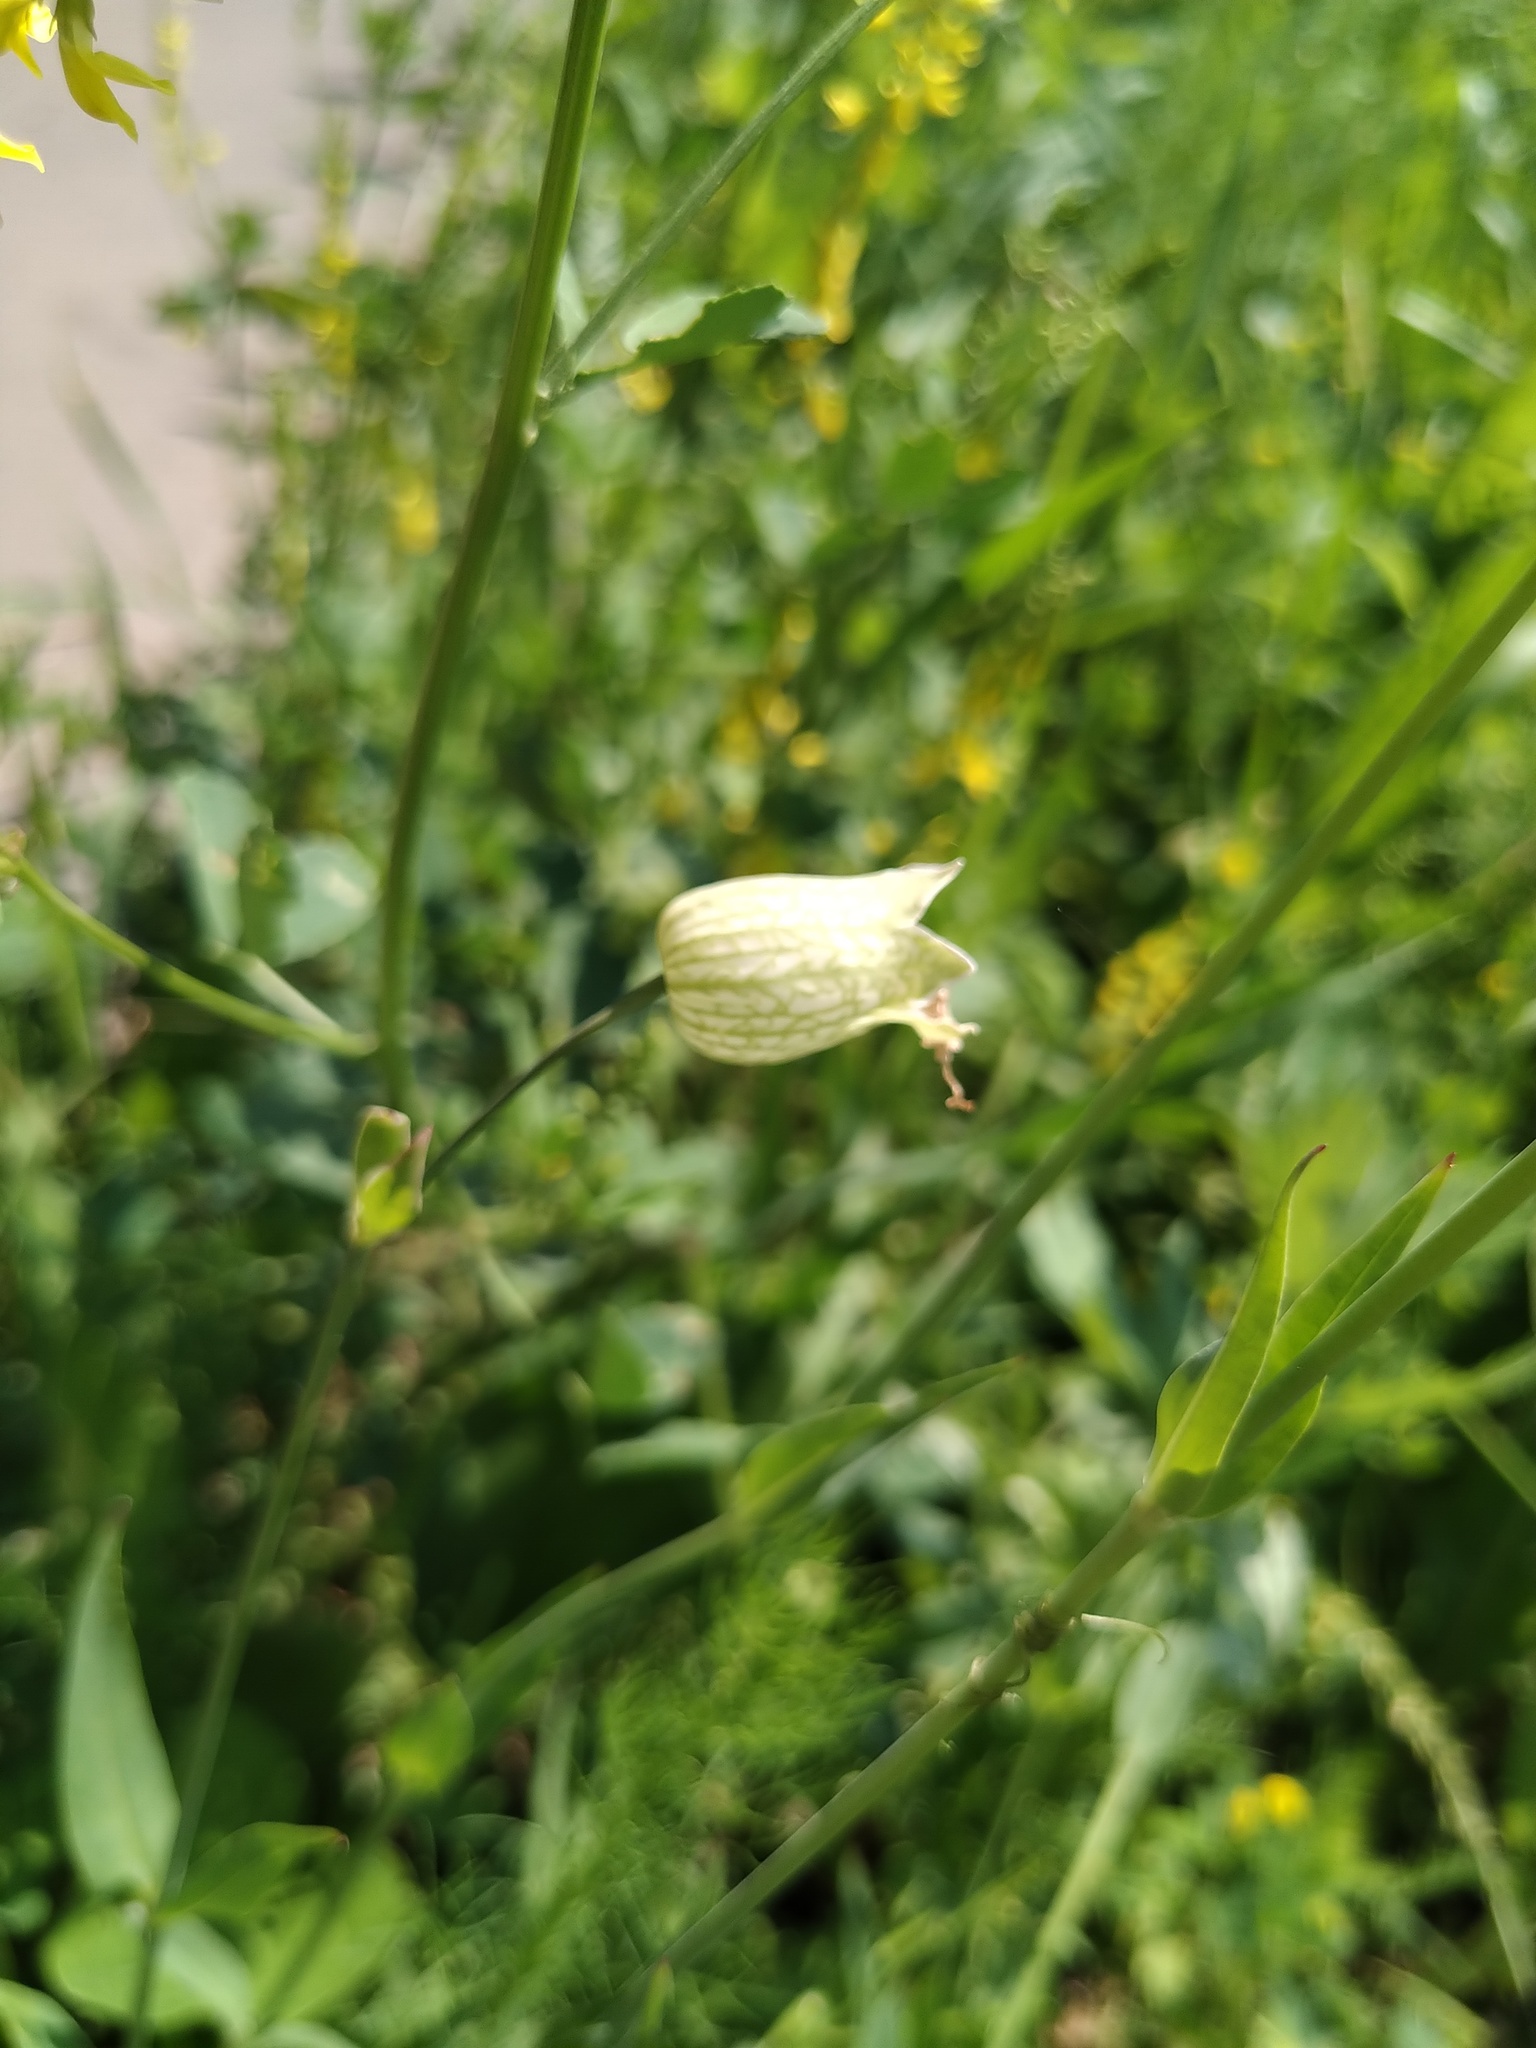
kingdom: Plantae
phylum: Tracheophyta
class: Magnoliopsida
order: Caryophyllales
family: Caryophyllaceae
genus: Silene
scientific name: Silene vulgaris
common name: Bladder campion
